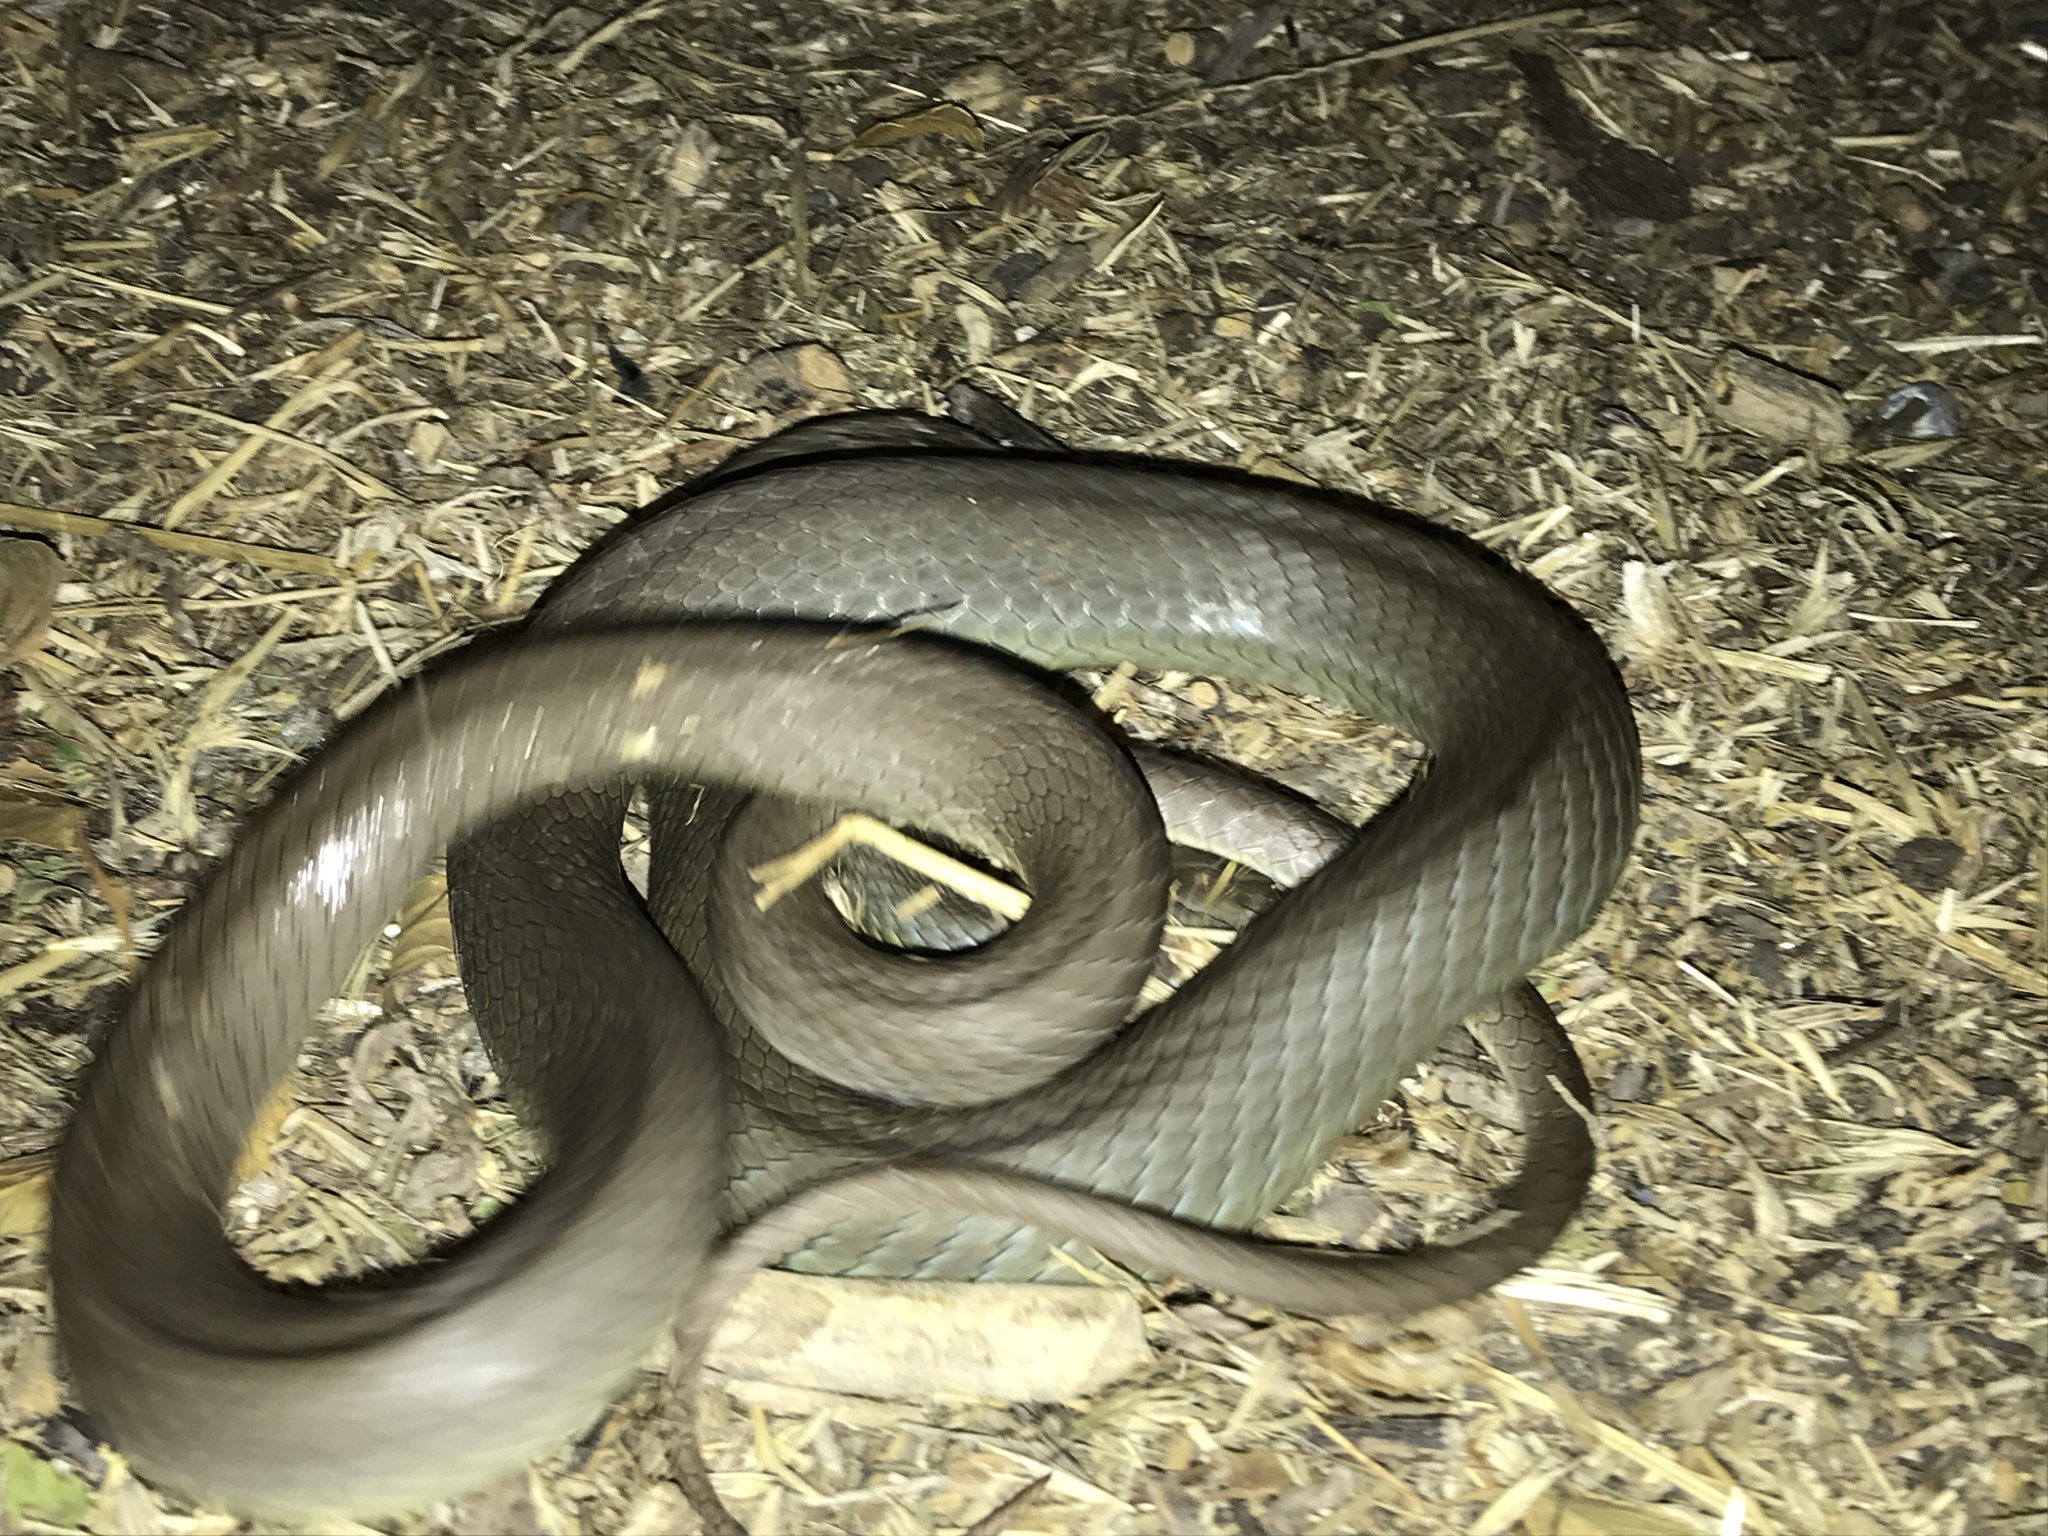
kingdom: Animalia
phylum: Chordata
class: Squamata
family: Colubridae
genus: Coluber
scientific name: Coluber constrictor
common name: Eastern racer
